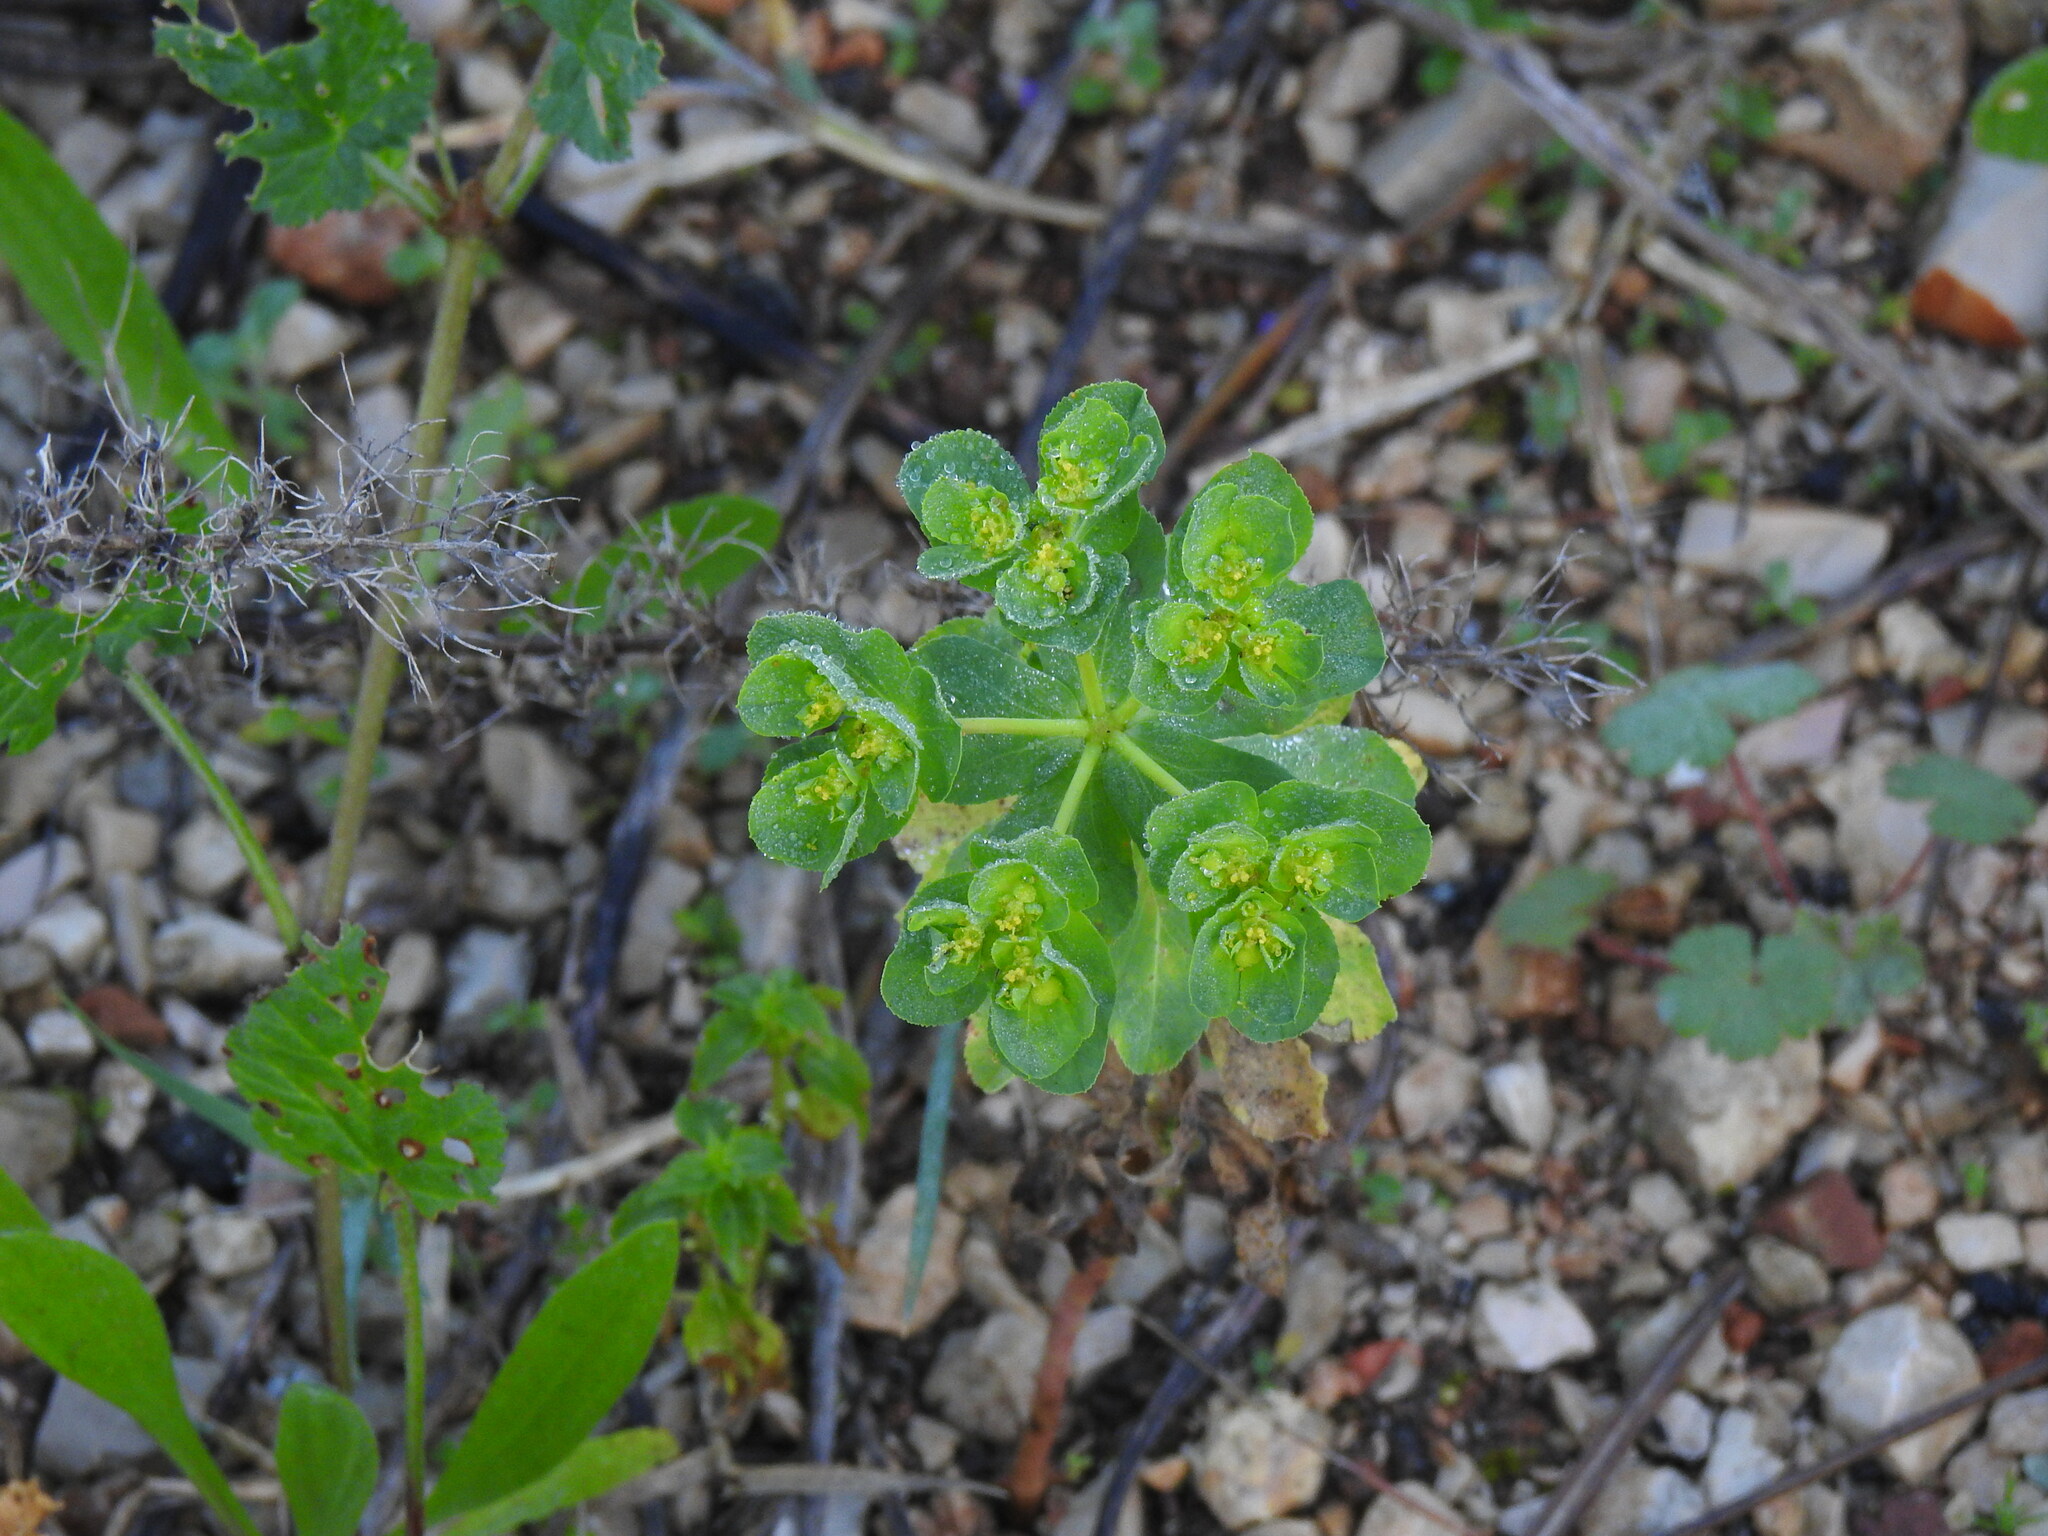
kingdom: Plantae
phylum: Tracheophyta
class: Magnoliopsida
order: Malpighiales
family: Euphorbiaceae
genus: Euphorbia
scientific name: Euphorbia helioscopia
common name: Sun spurge
